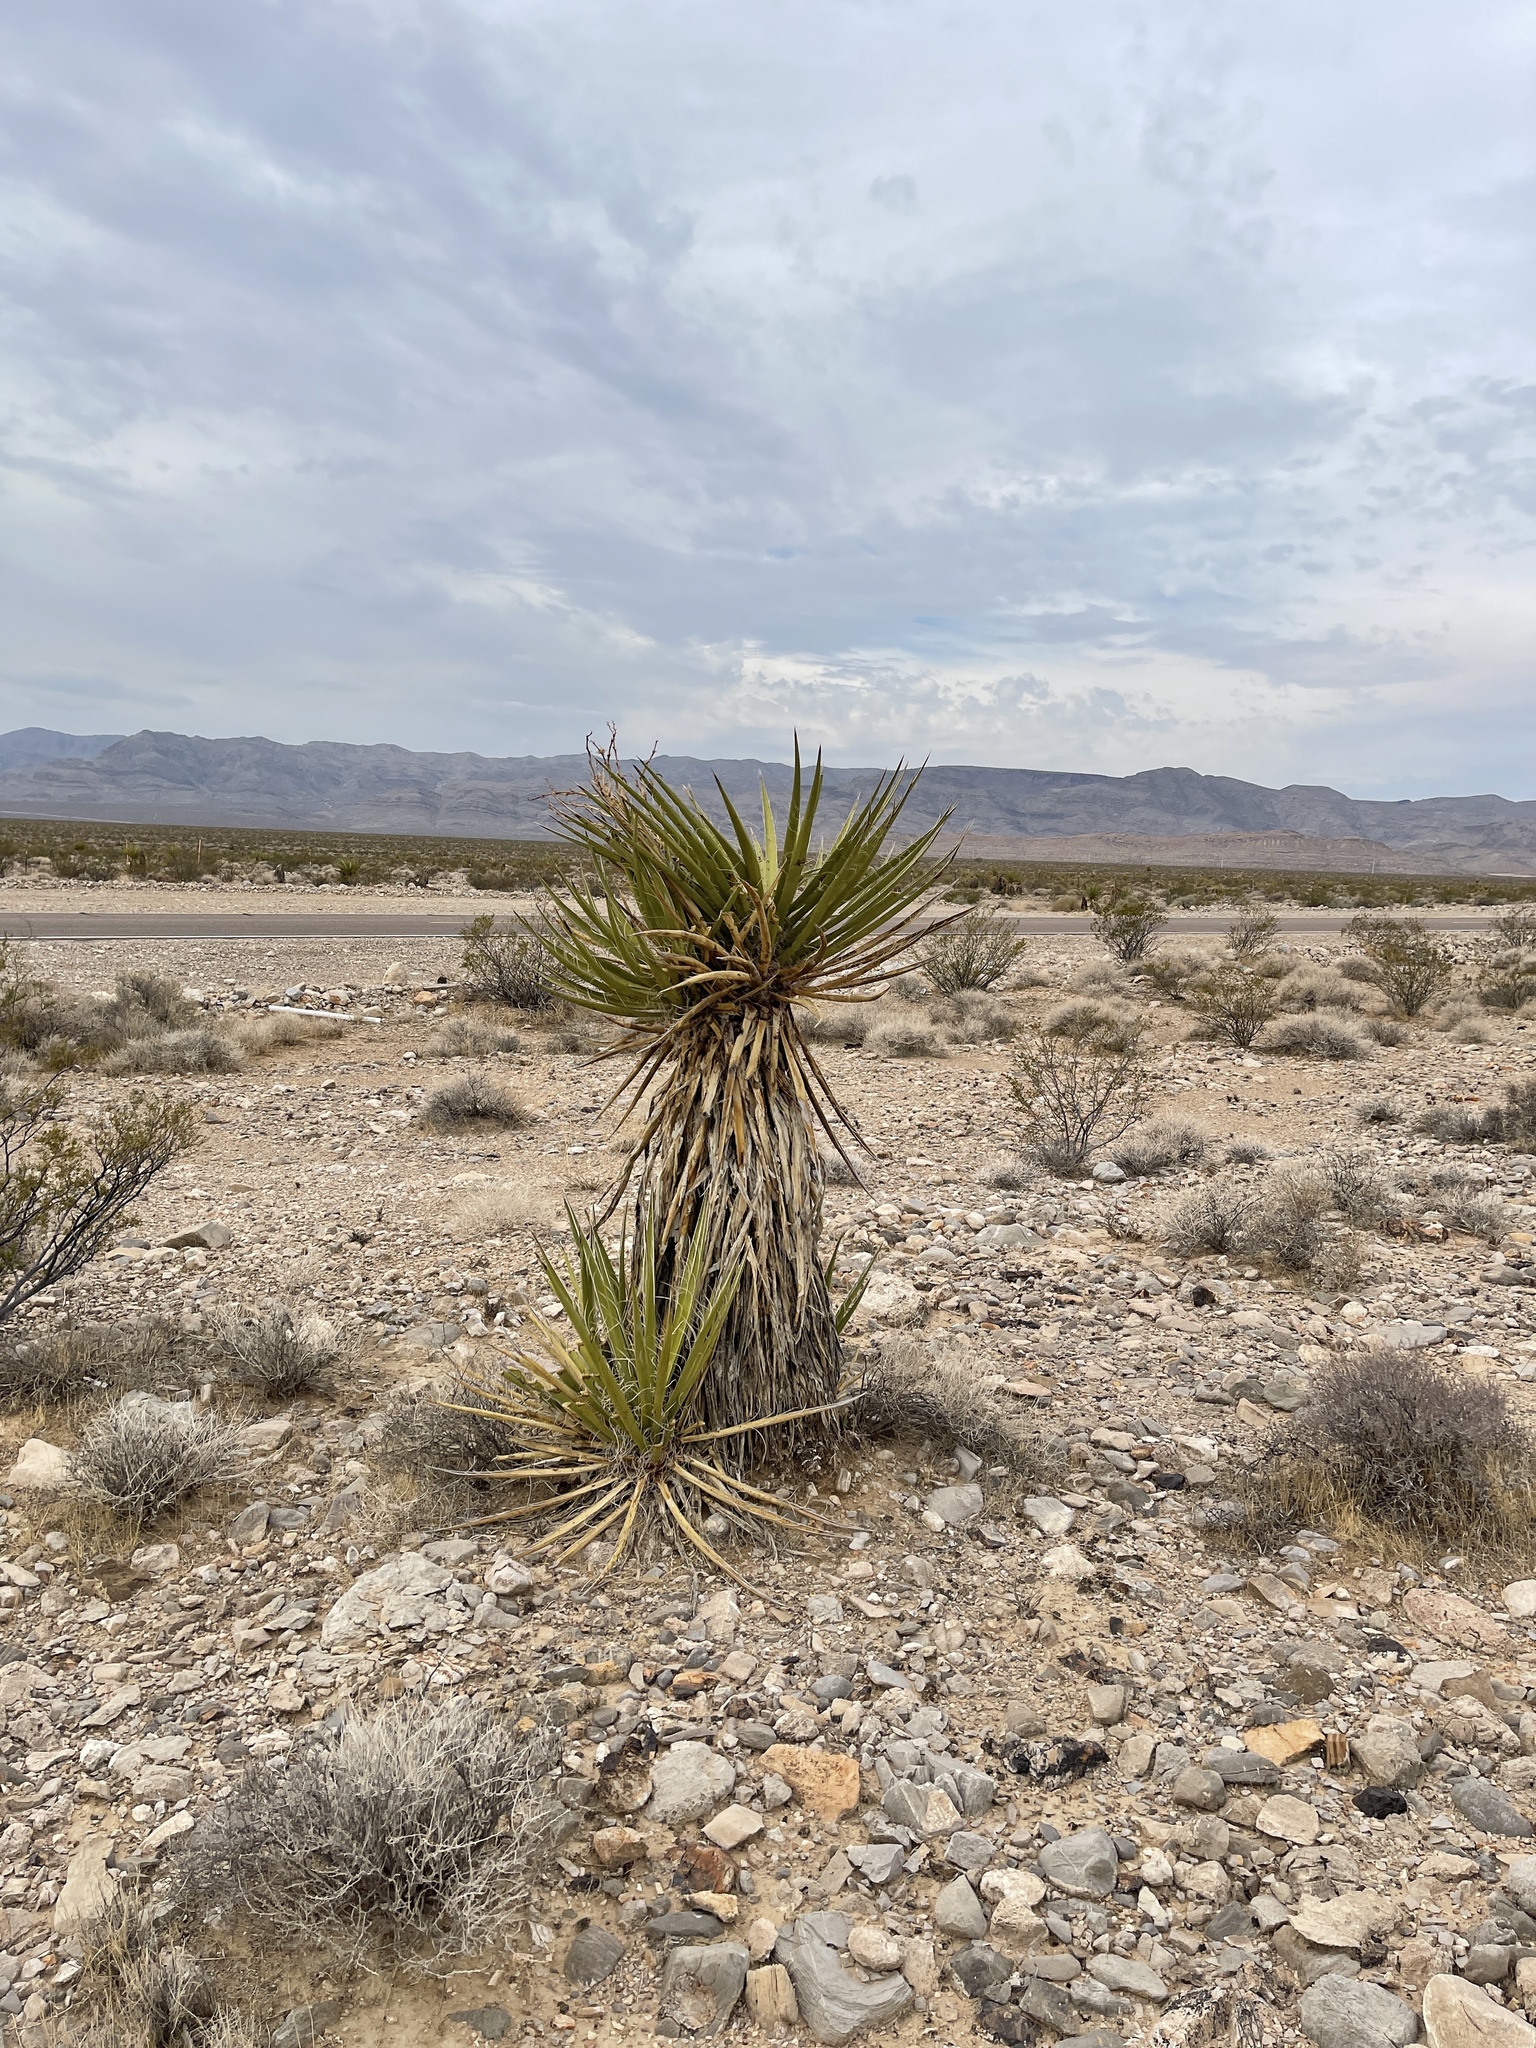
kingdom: Plantae
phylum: Tracheophyta
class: Liliopsida
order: Asparagales
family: Asparagaceae
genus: Yucca
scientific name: Yucca schidigera
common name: Mojave yucca
